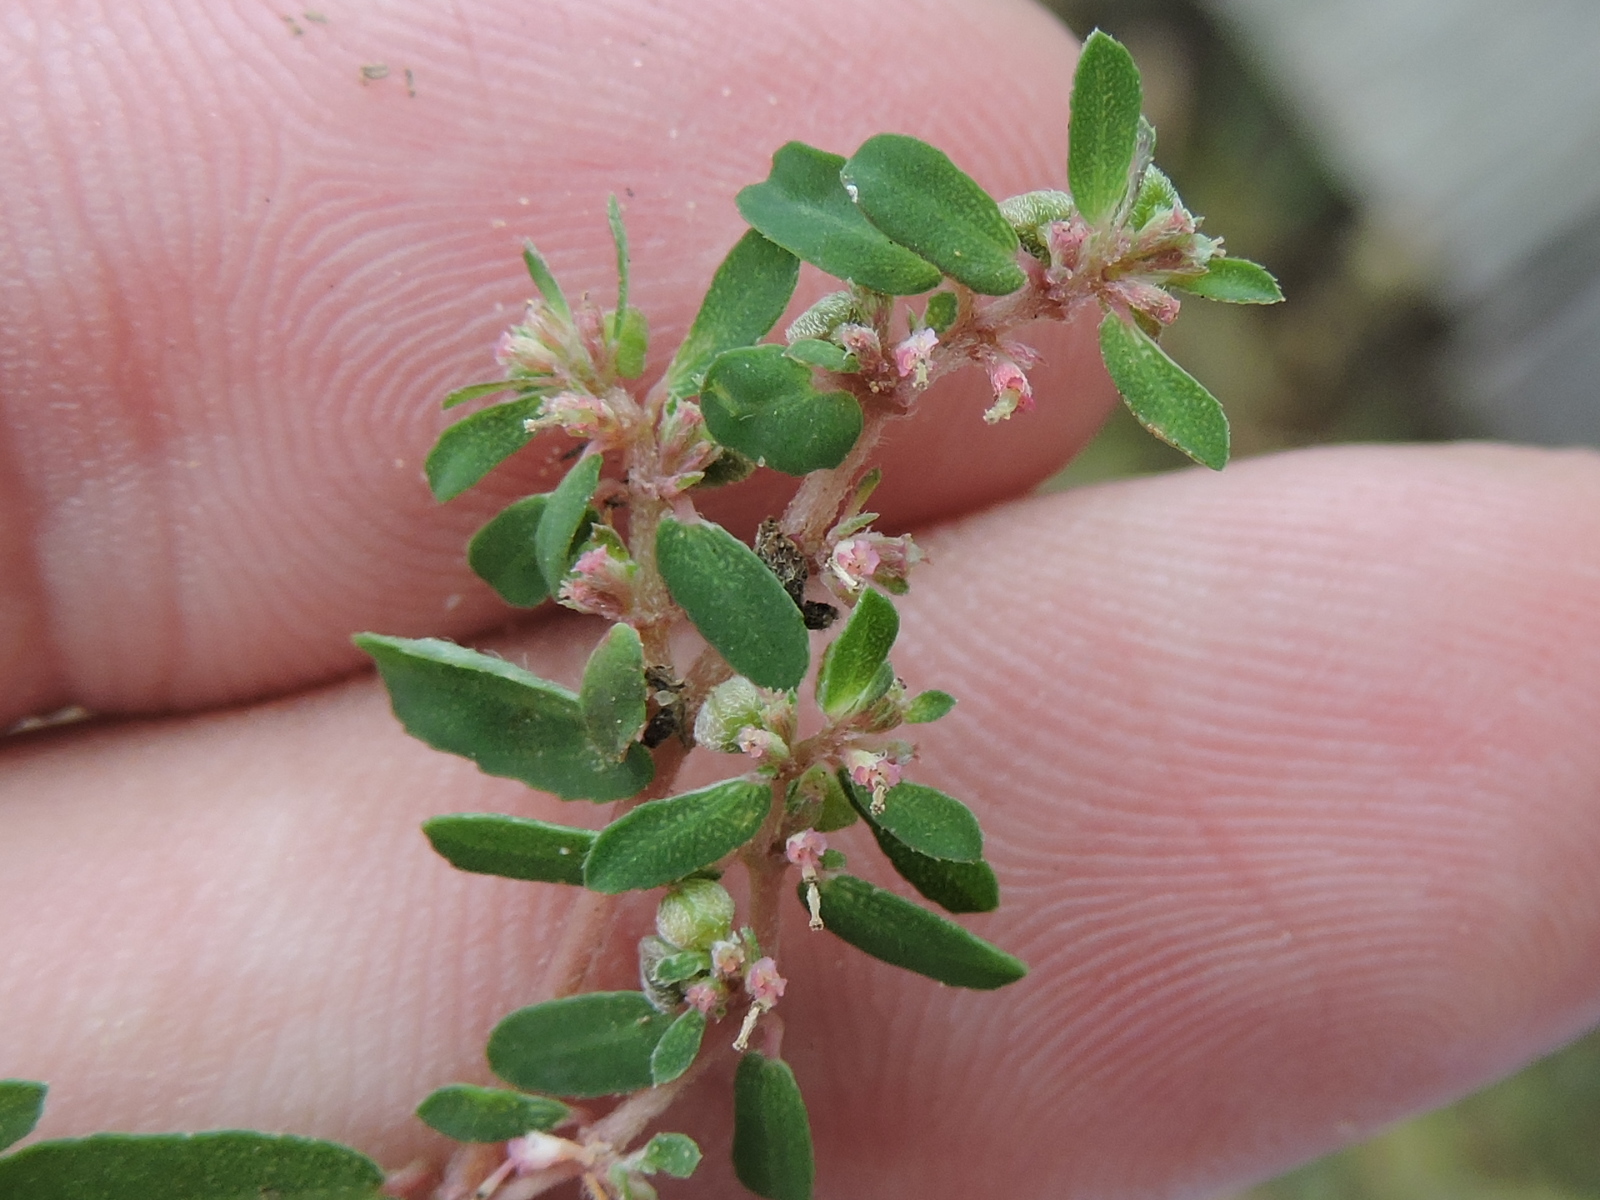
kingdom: Plantae
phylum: Tracheophyta
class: Magnoliopsida
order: Malpighiales
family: Euphorbiaceae
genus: Euphorbia
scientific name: Euphorbia maculata
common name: Spotted spurge
